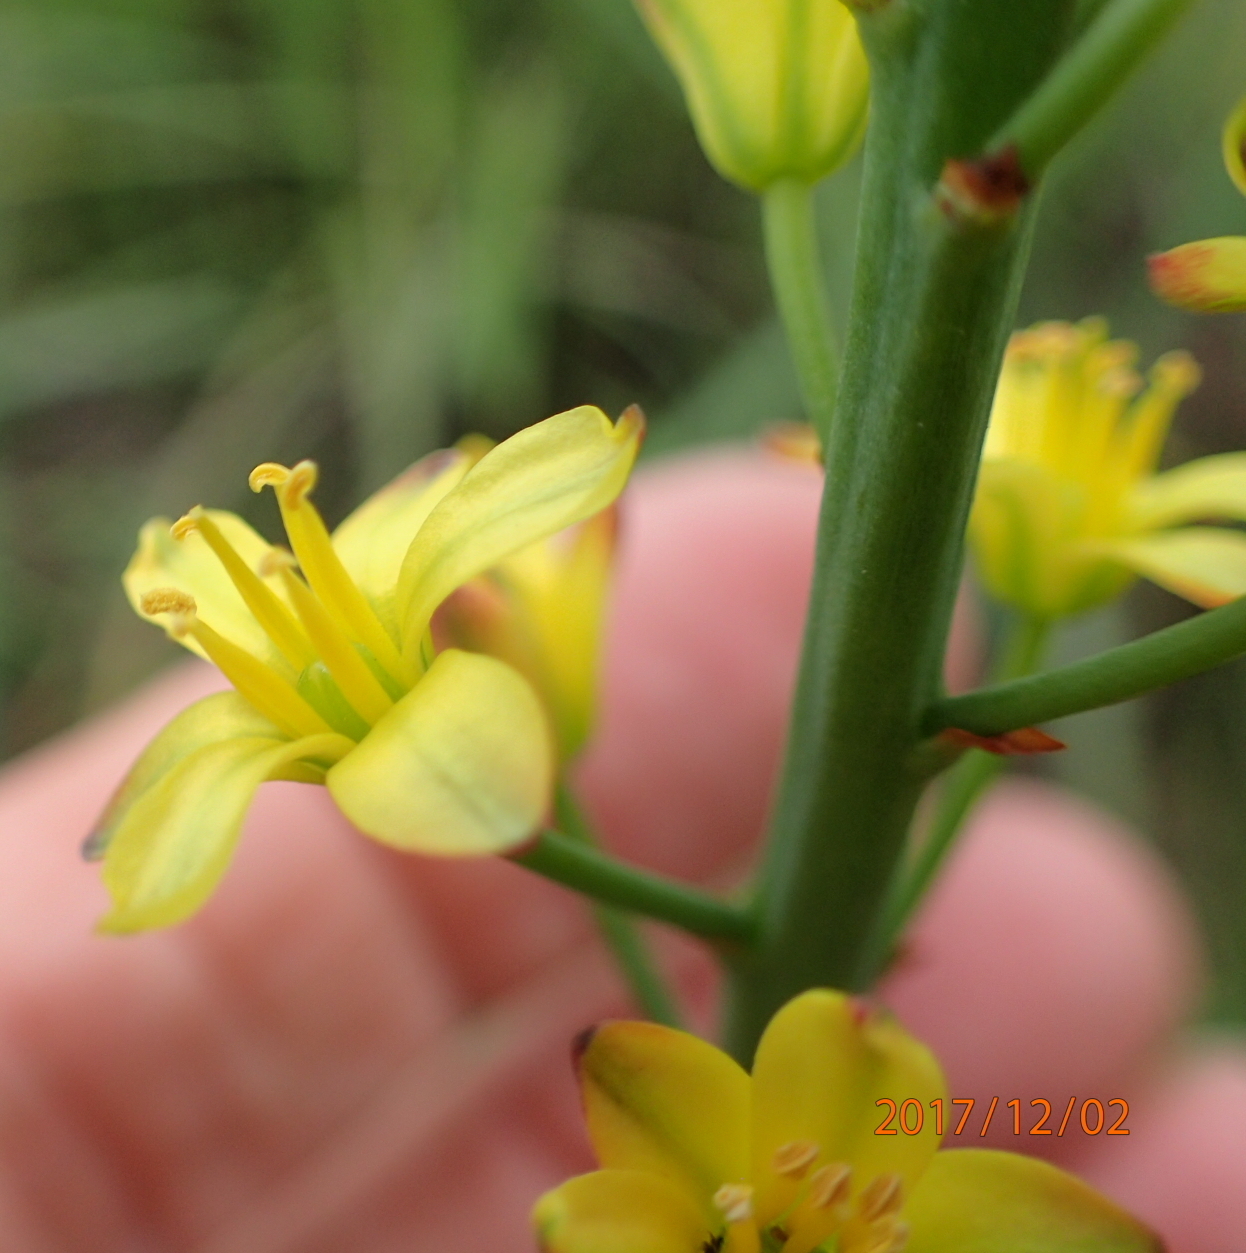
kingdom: Plantae
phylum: Tracheophyta
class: Liliopsida
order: Asparagales
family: Asparagaceae
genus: Eriospermum
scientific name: Eriospermum mackenii
